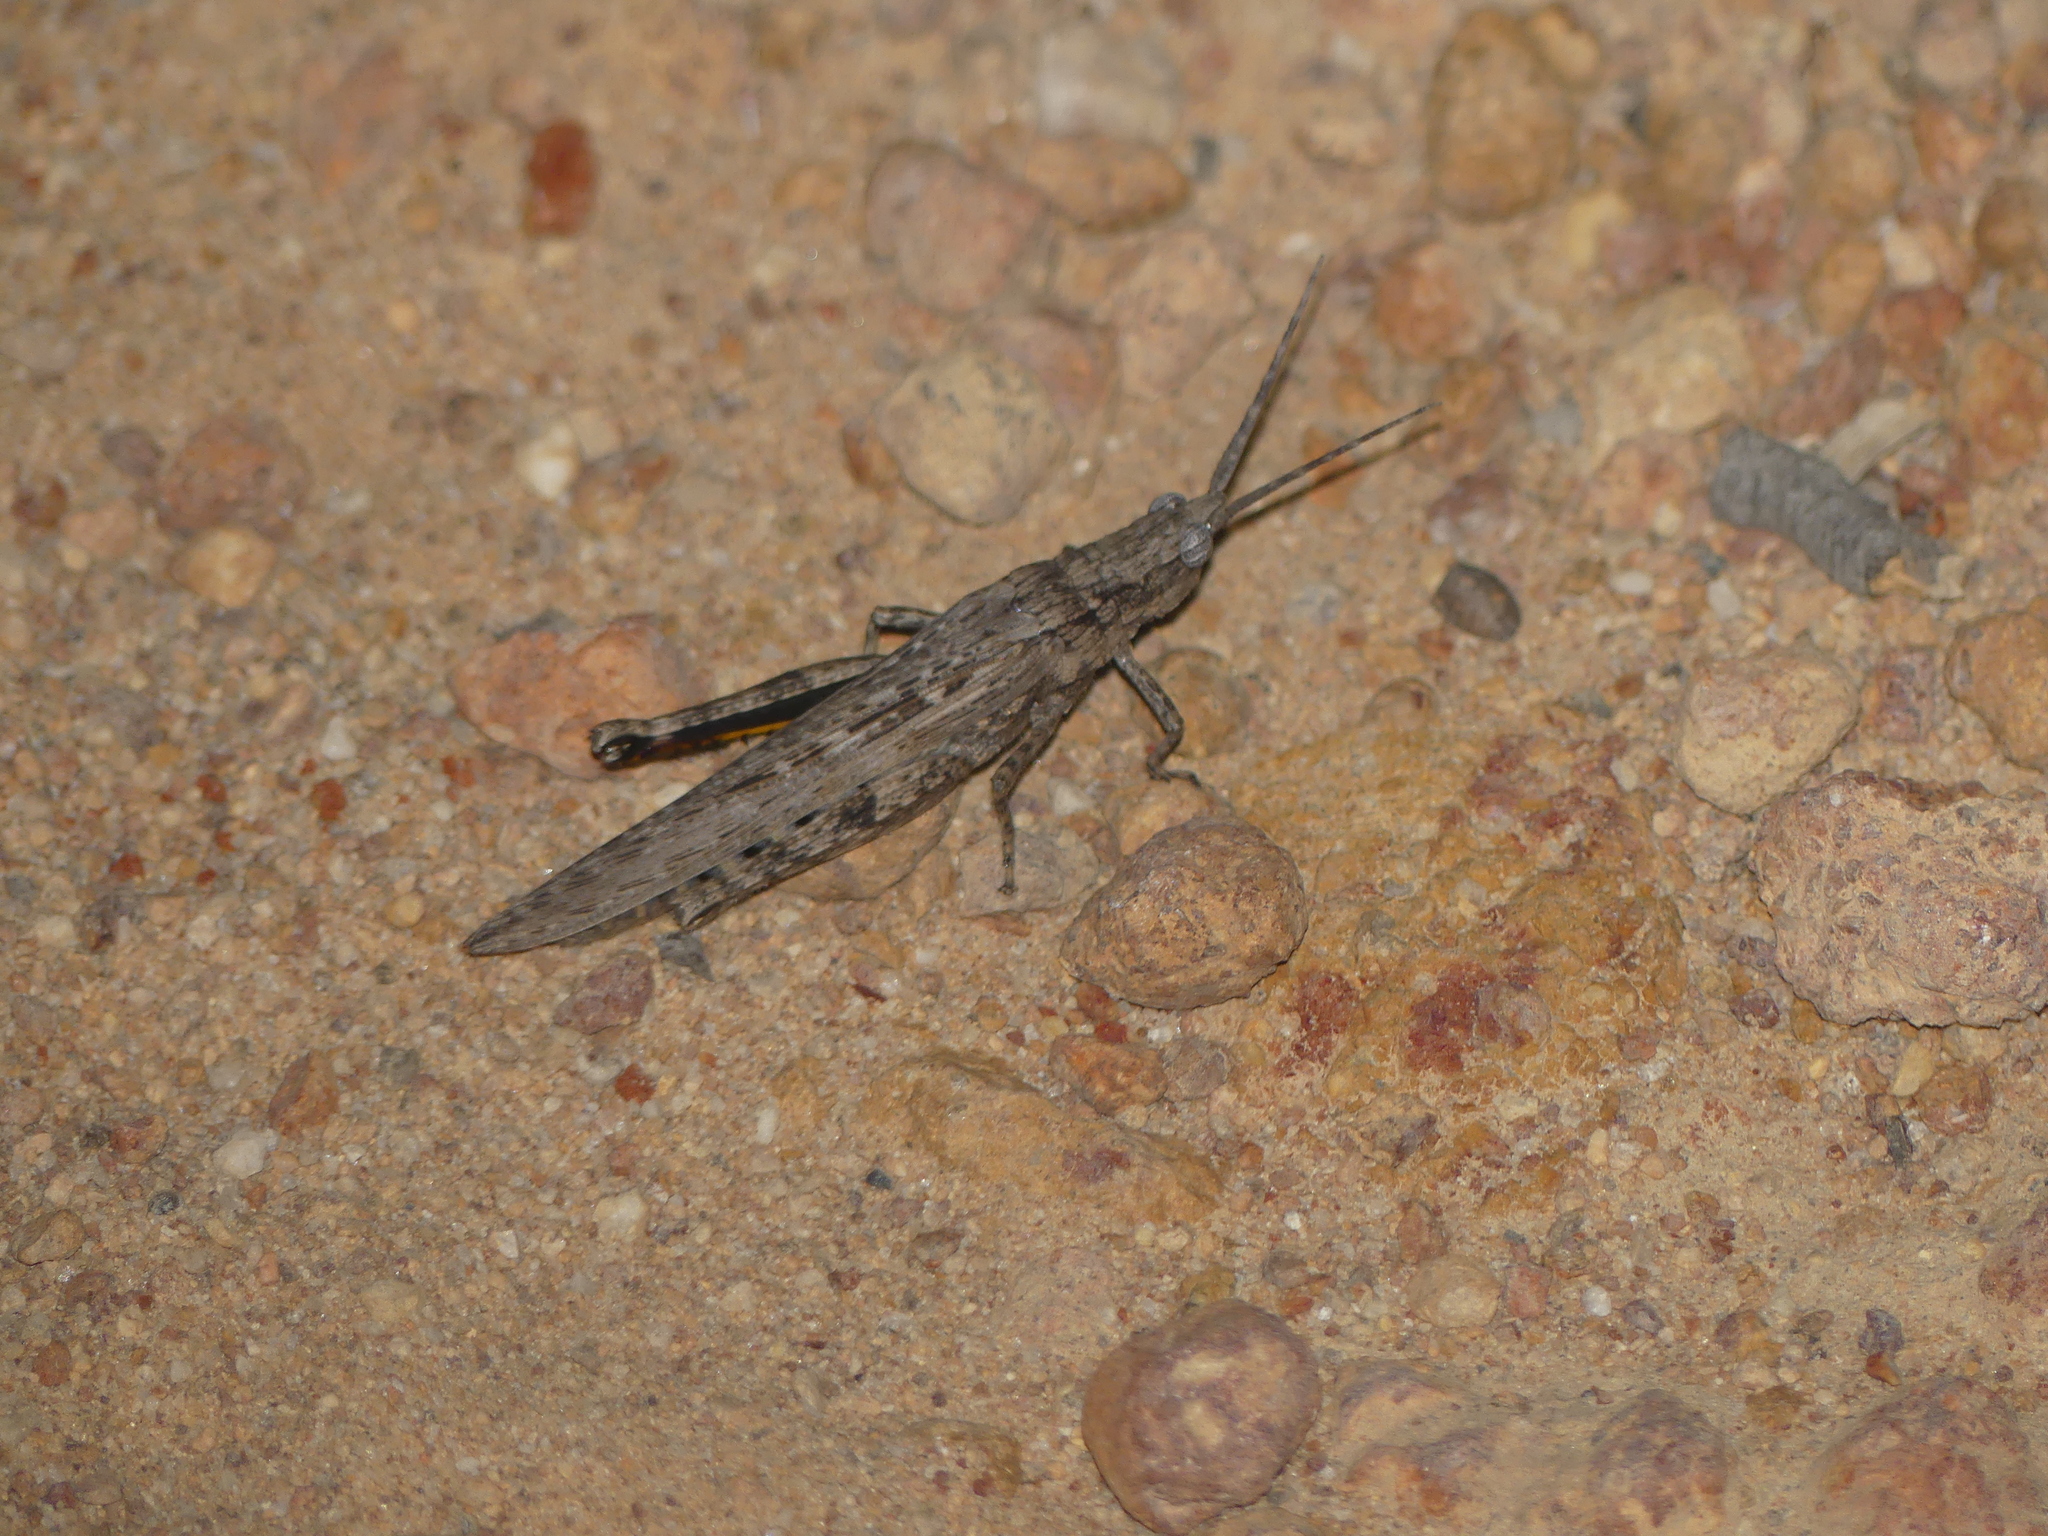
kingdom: Animalia
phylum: Arthropoda
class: Insecta
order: Orthoptera
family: Acrididae
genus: Coryphistes
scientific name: Coryphistes ruricola
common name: Bark-mimicking grasshopper
